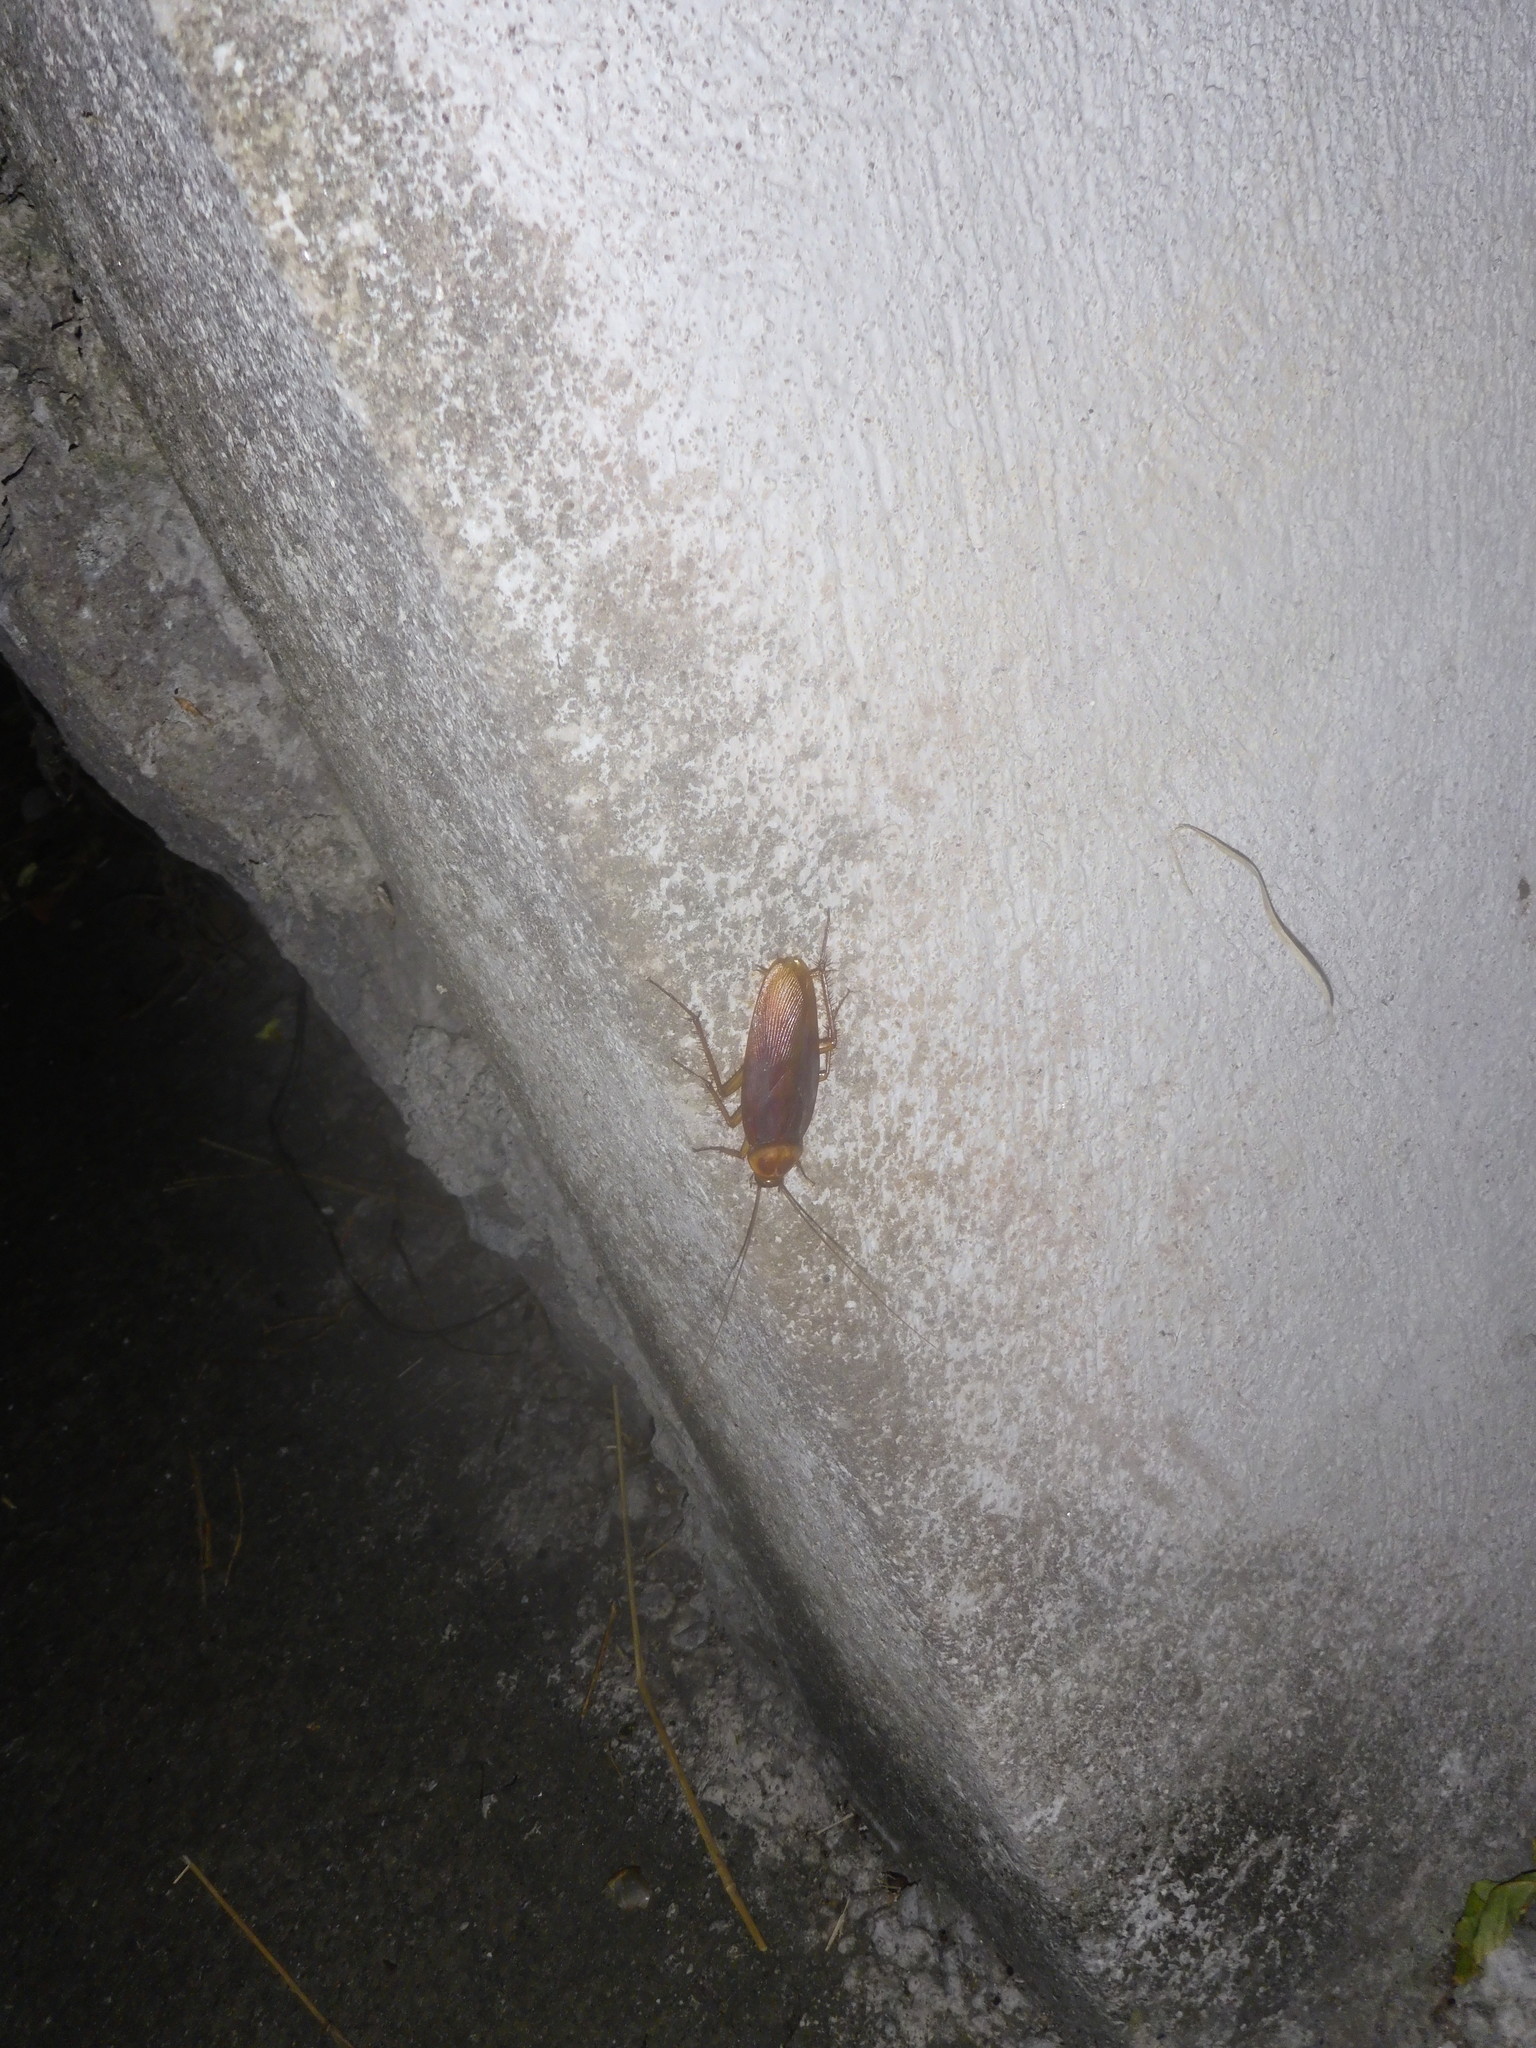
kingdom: Animalia
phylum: Arthropoda
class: Insecta
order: Blattodea
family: Blattidae
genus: Periplaneta
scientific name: Periplaneta americana
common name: American cockroach
